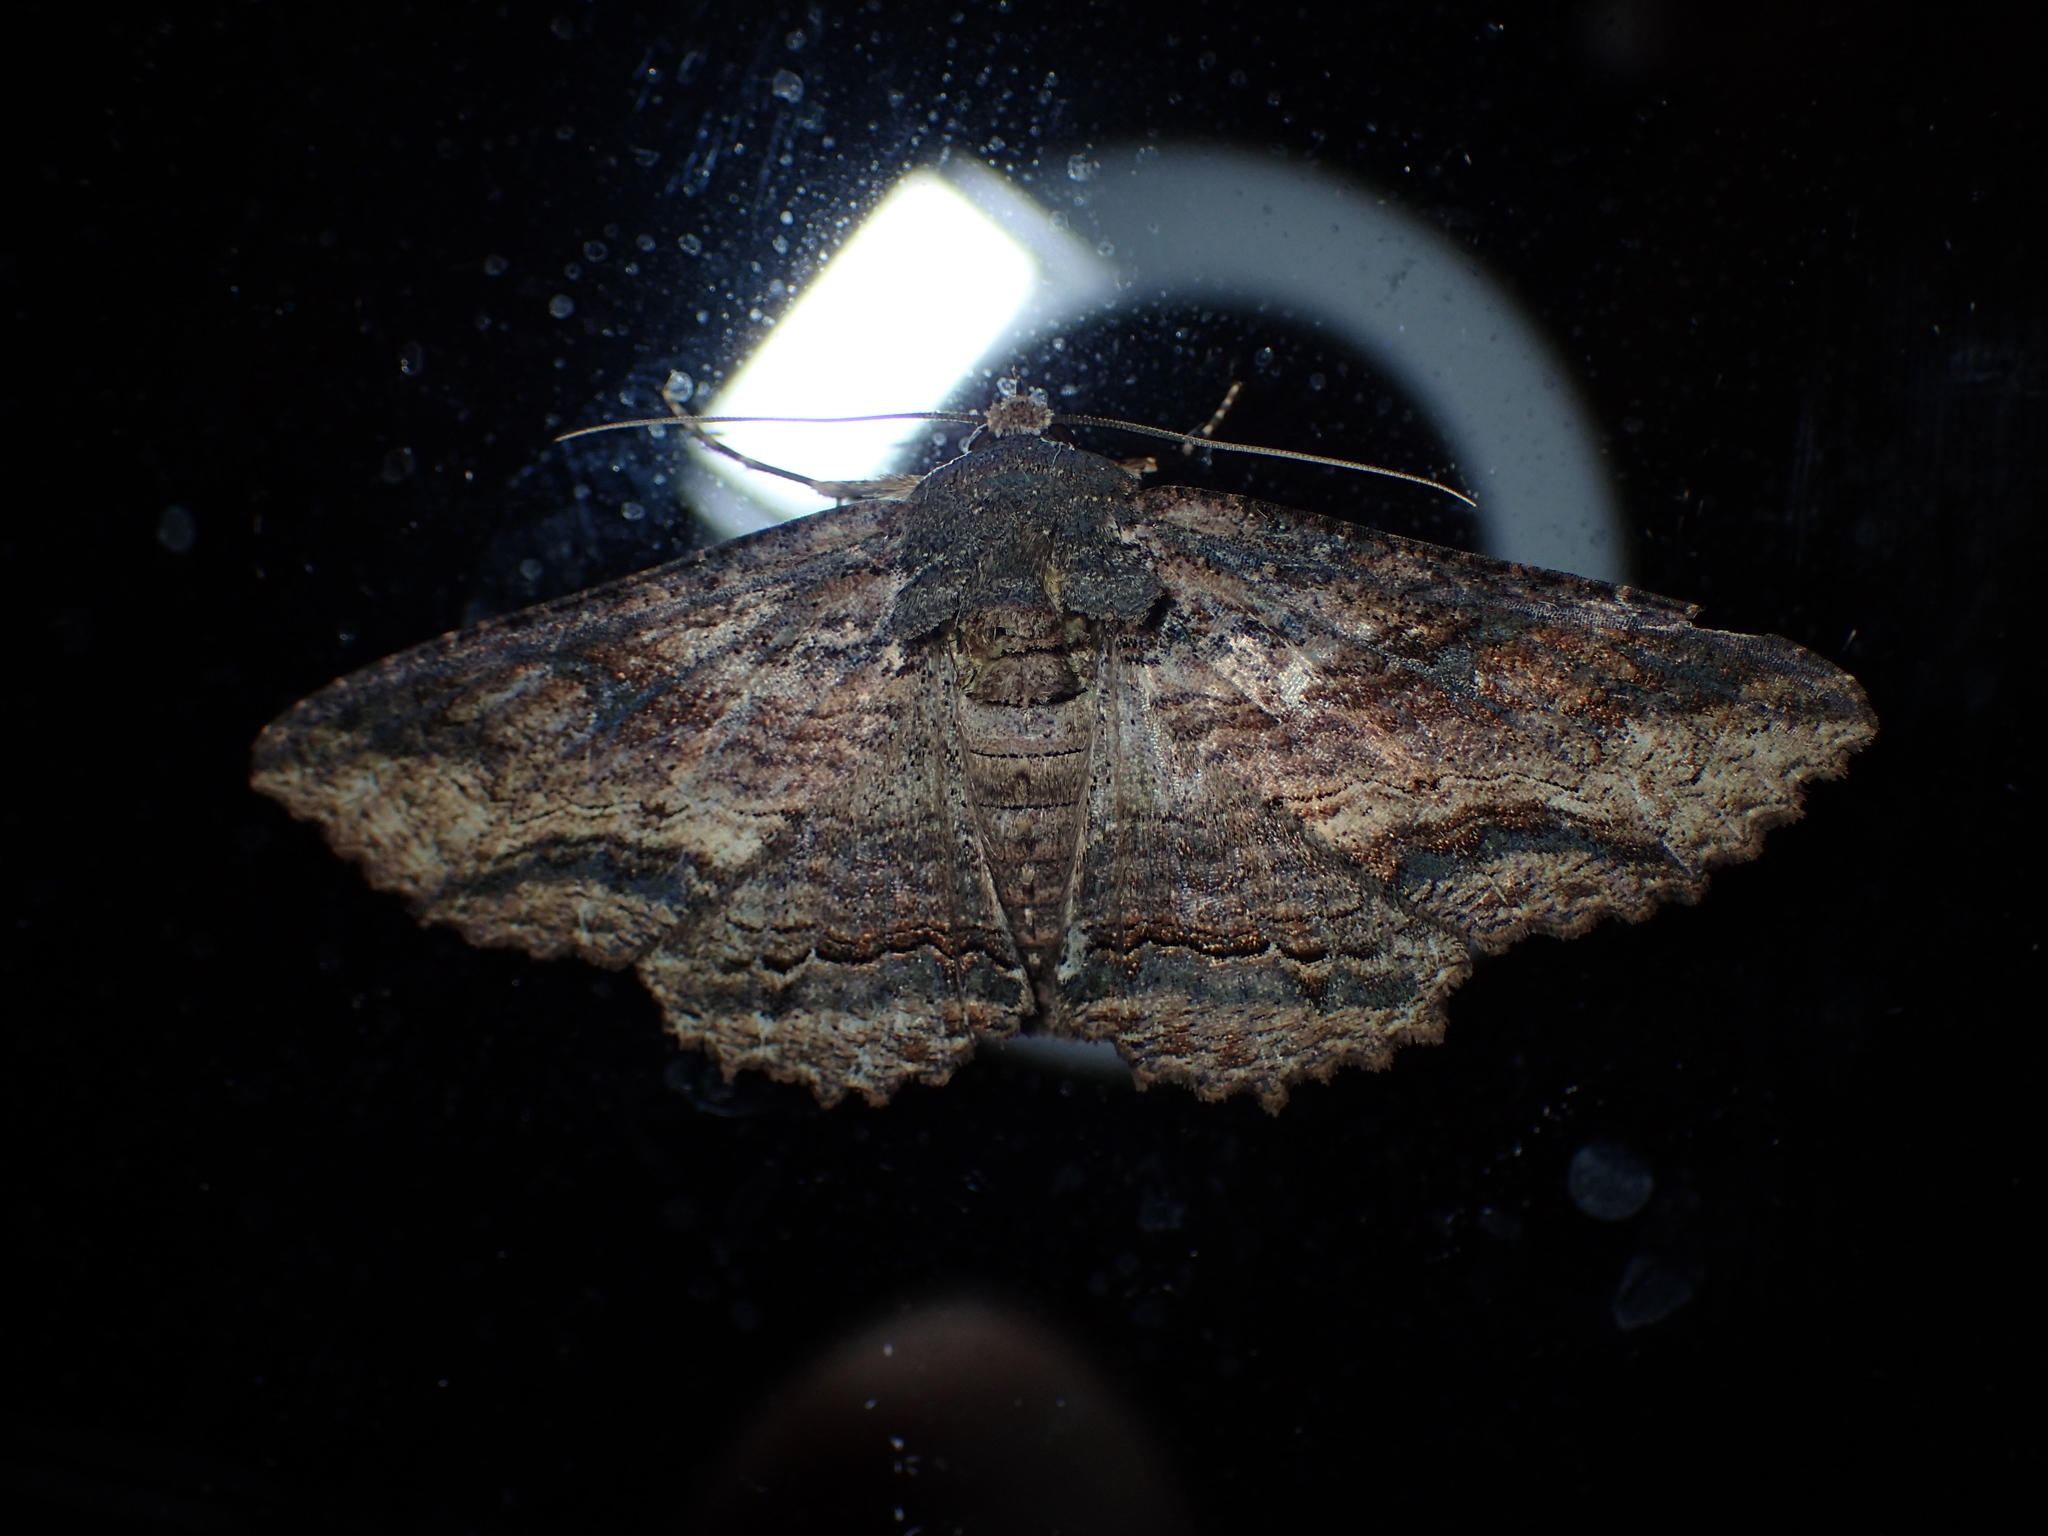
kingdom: Animalia
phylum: Arthropoda
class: Insecta
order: Lepidoptera
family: Erebidae
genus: Zale
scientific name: Zale lunata
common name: Lunate zale moth
